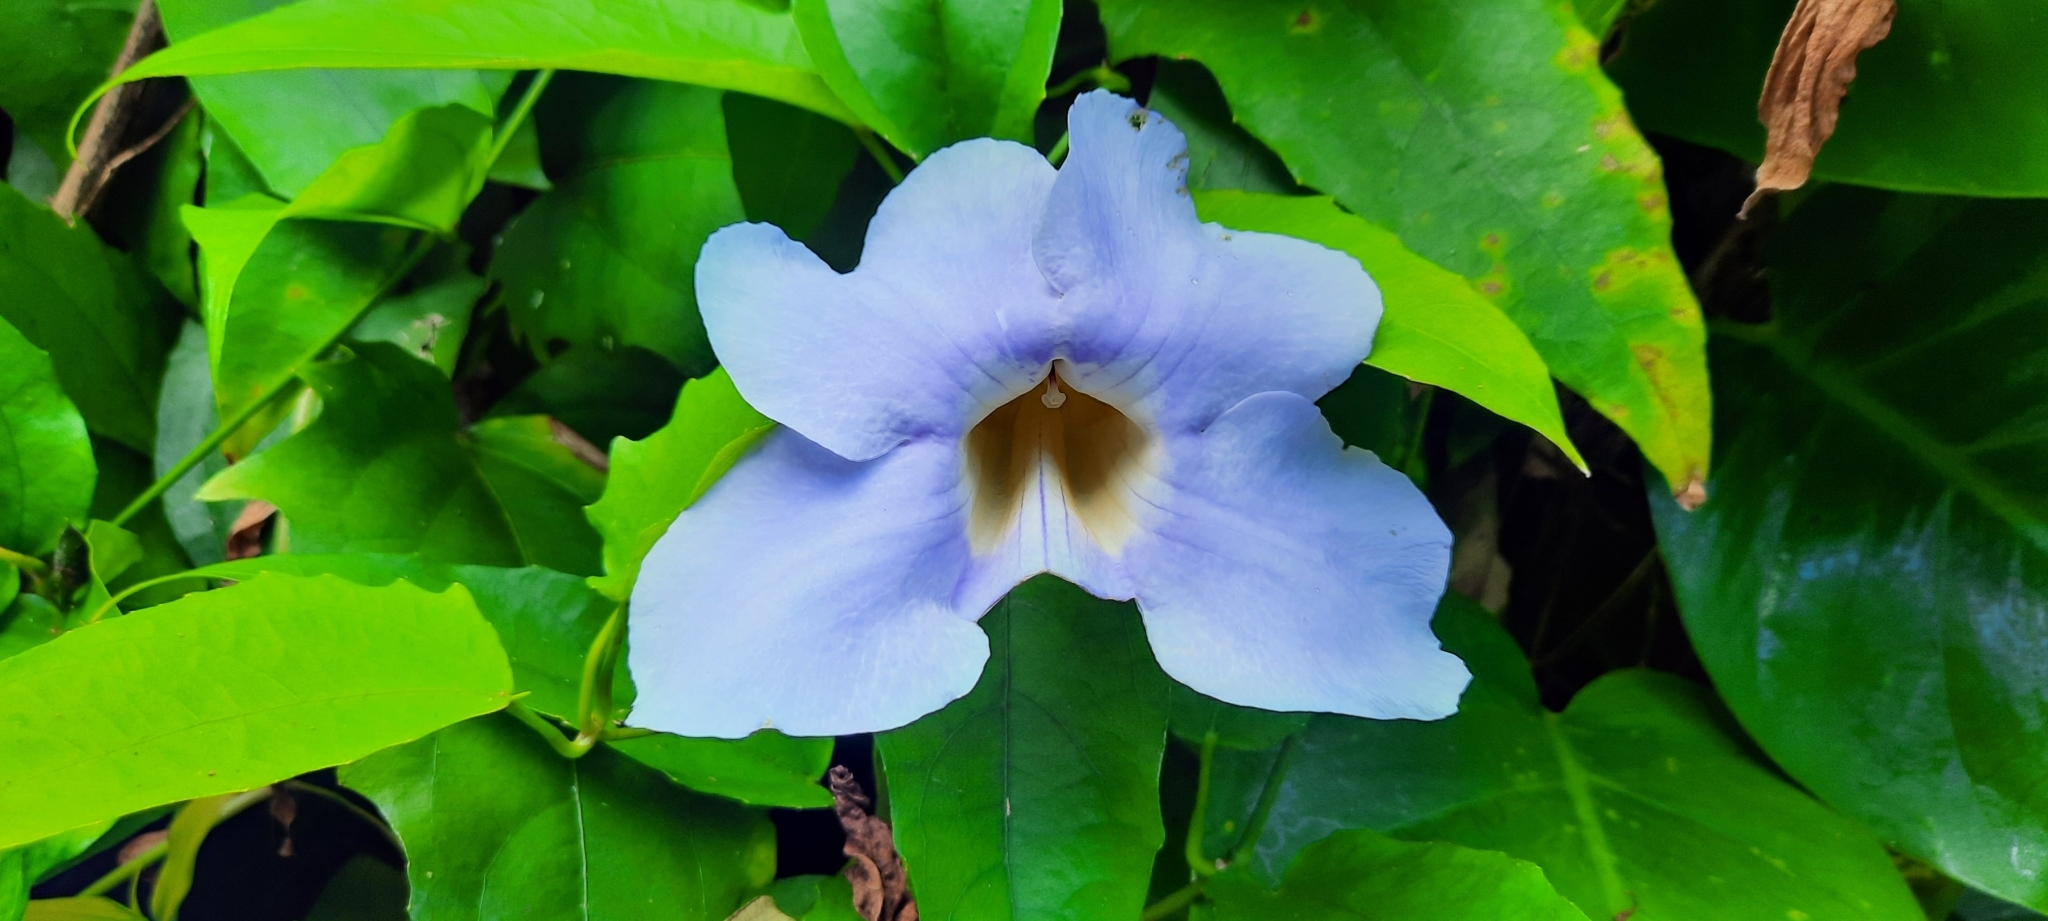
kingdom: Plantae
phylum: Tracheophyta
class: Magnoliopsida
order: Lamiales
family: Acanthaceae
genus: Thunbergia
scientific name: Thunbergia laurifolia
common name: Laurel-leaved thunbergia
